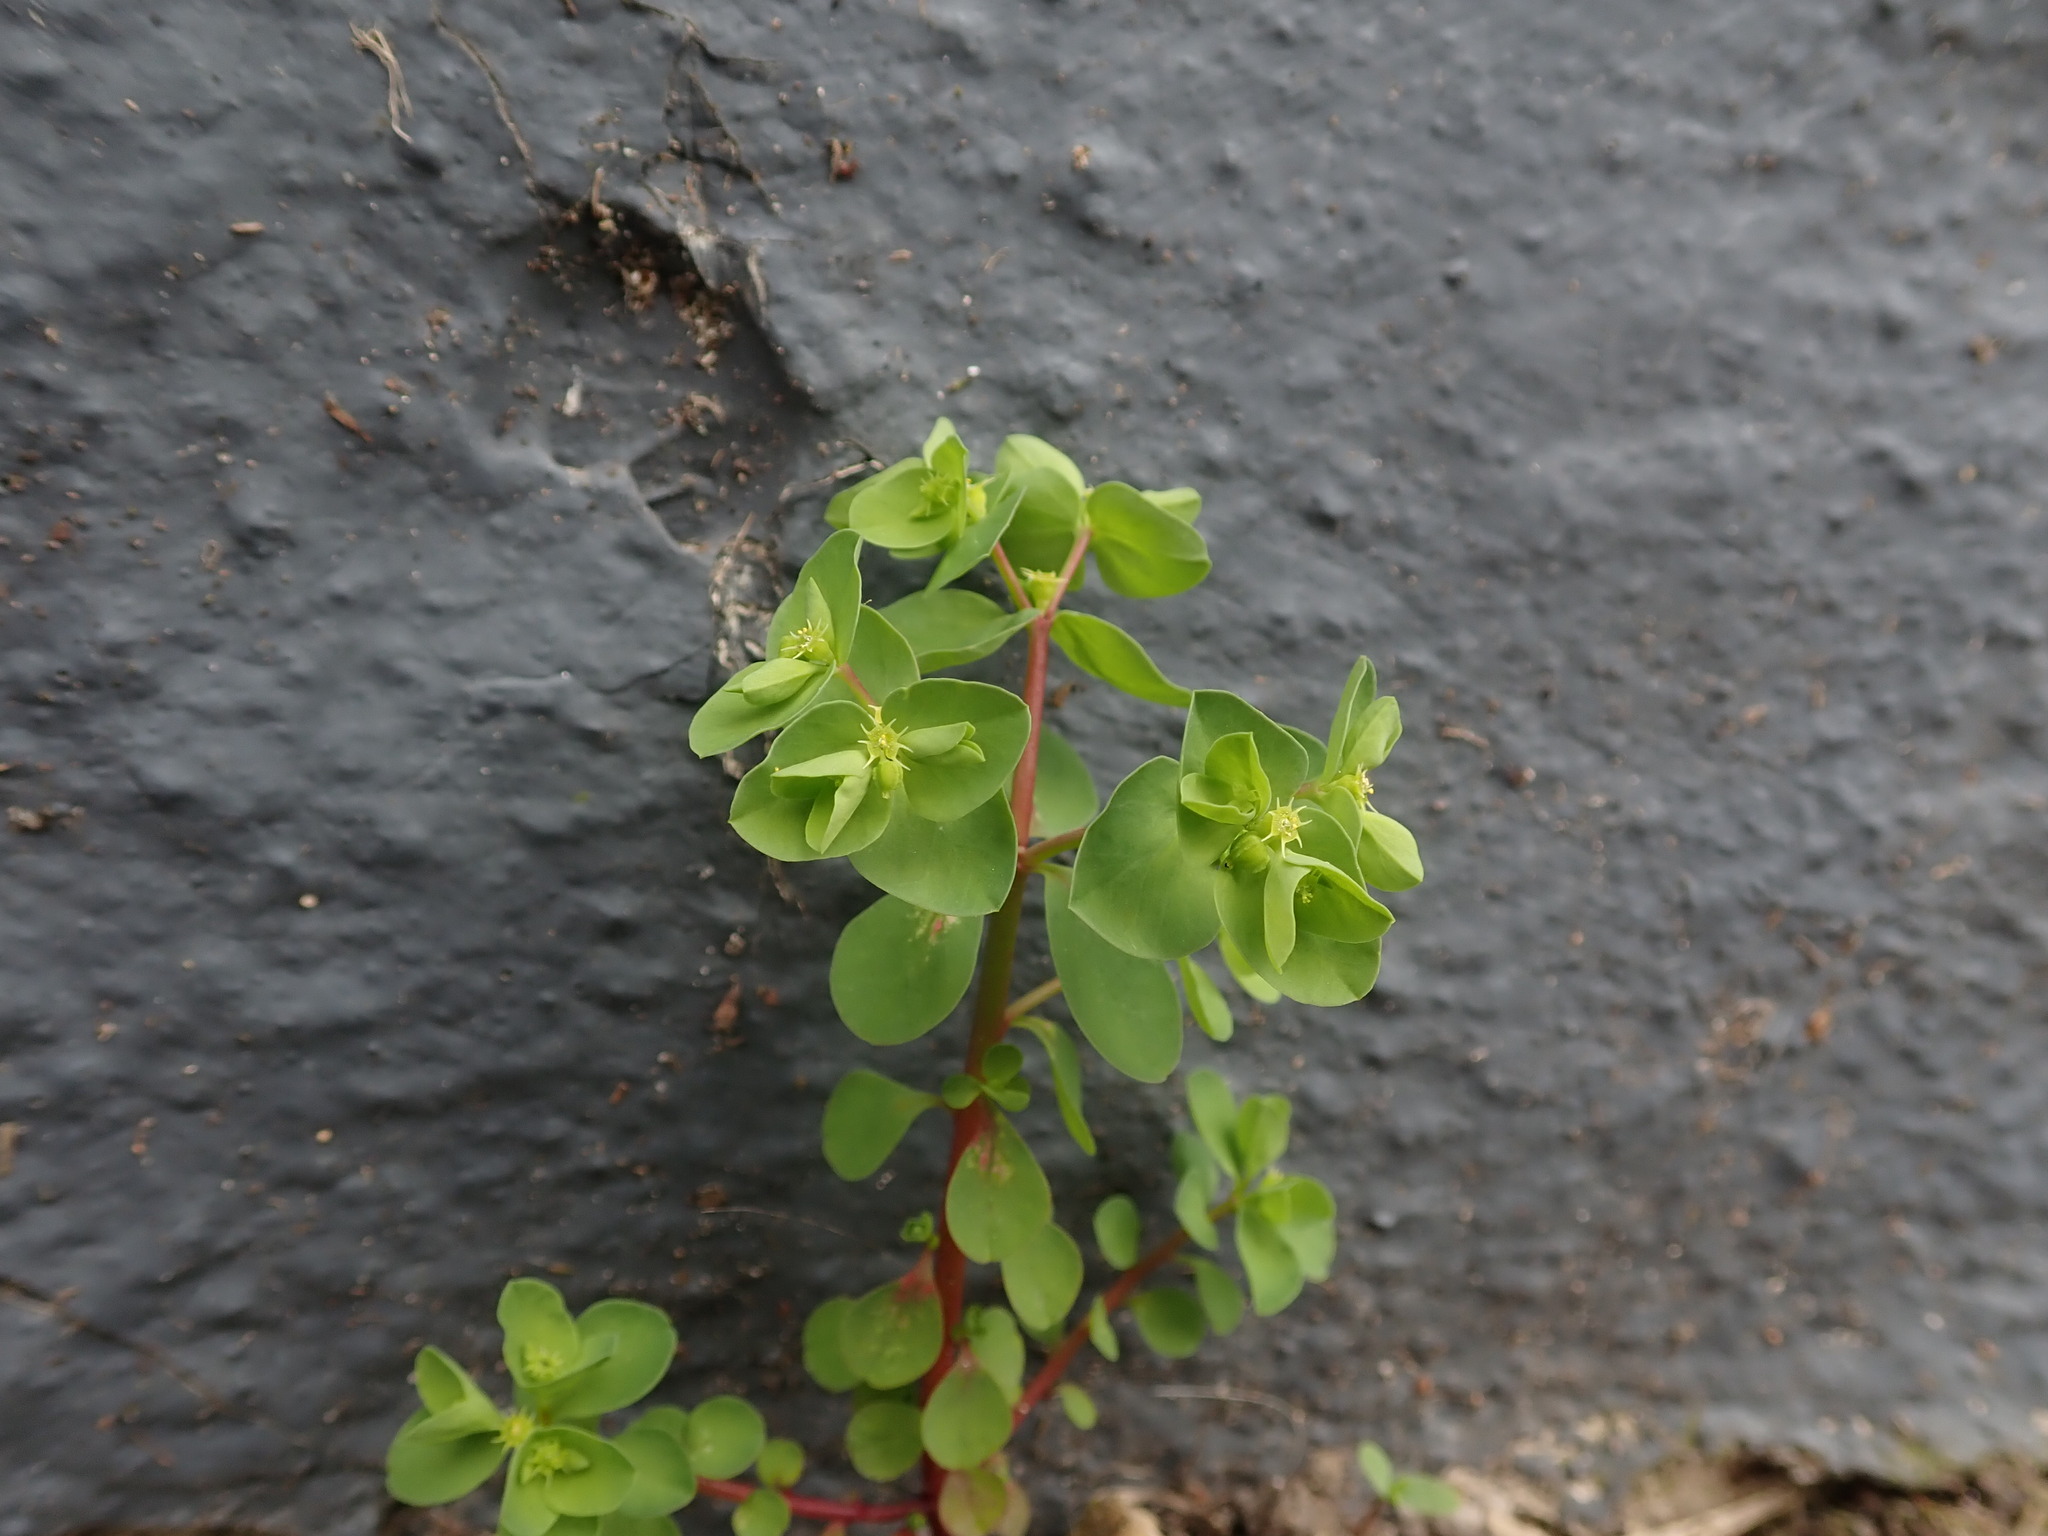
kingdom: Plantae
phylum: Tracheophyta
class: Magnoliopsida
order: Malpighiales
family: Euphorbiaceae
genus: Euphorbia
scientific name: Euphorbia peplus
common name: Petty spurge
